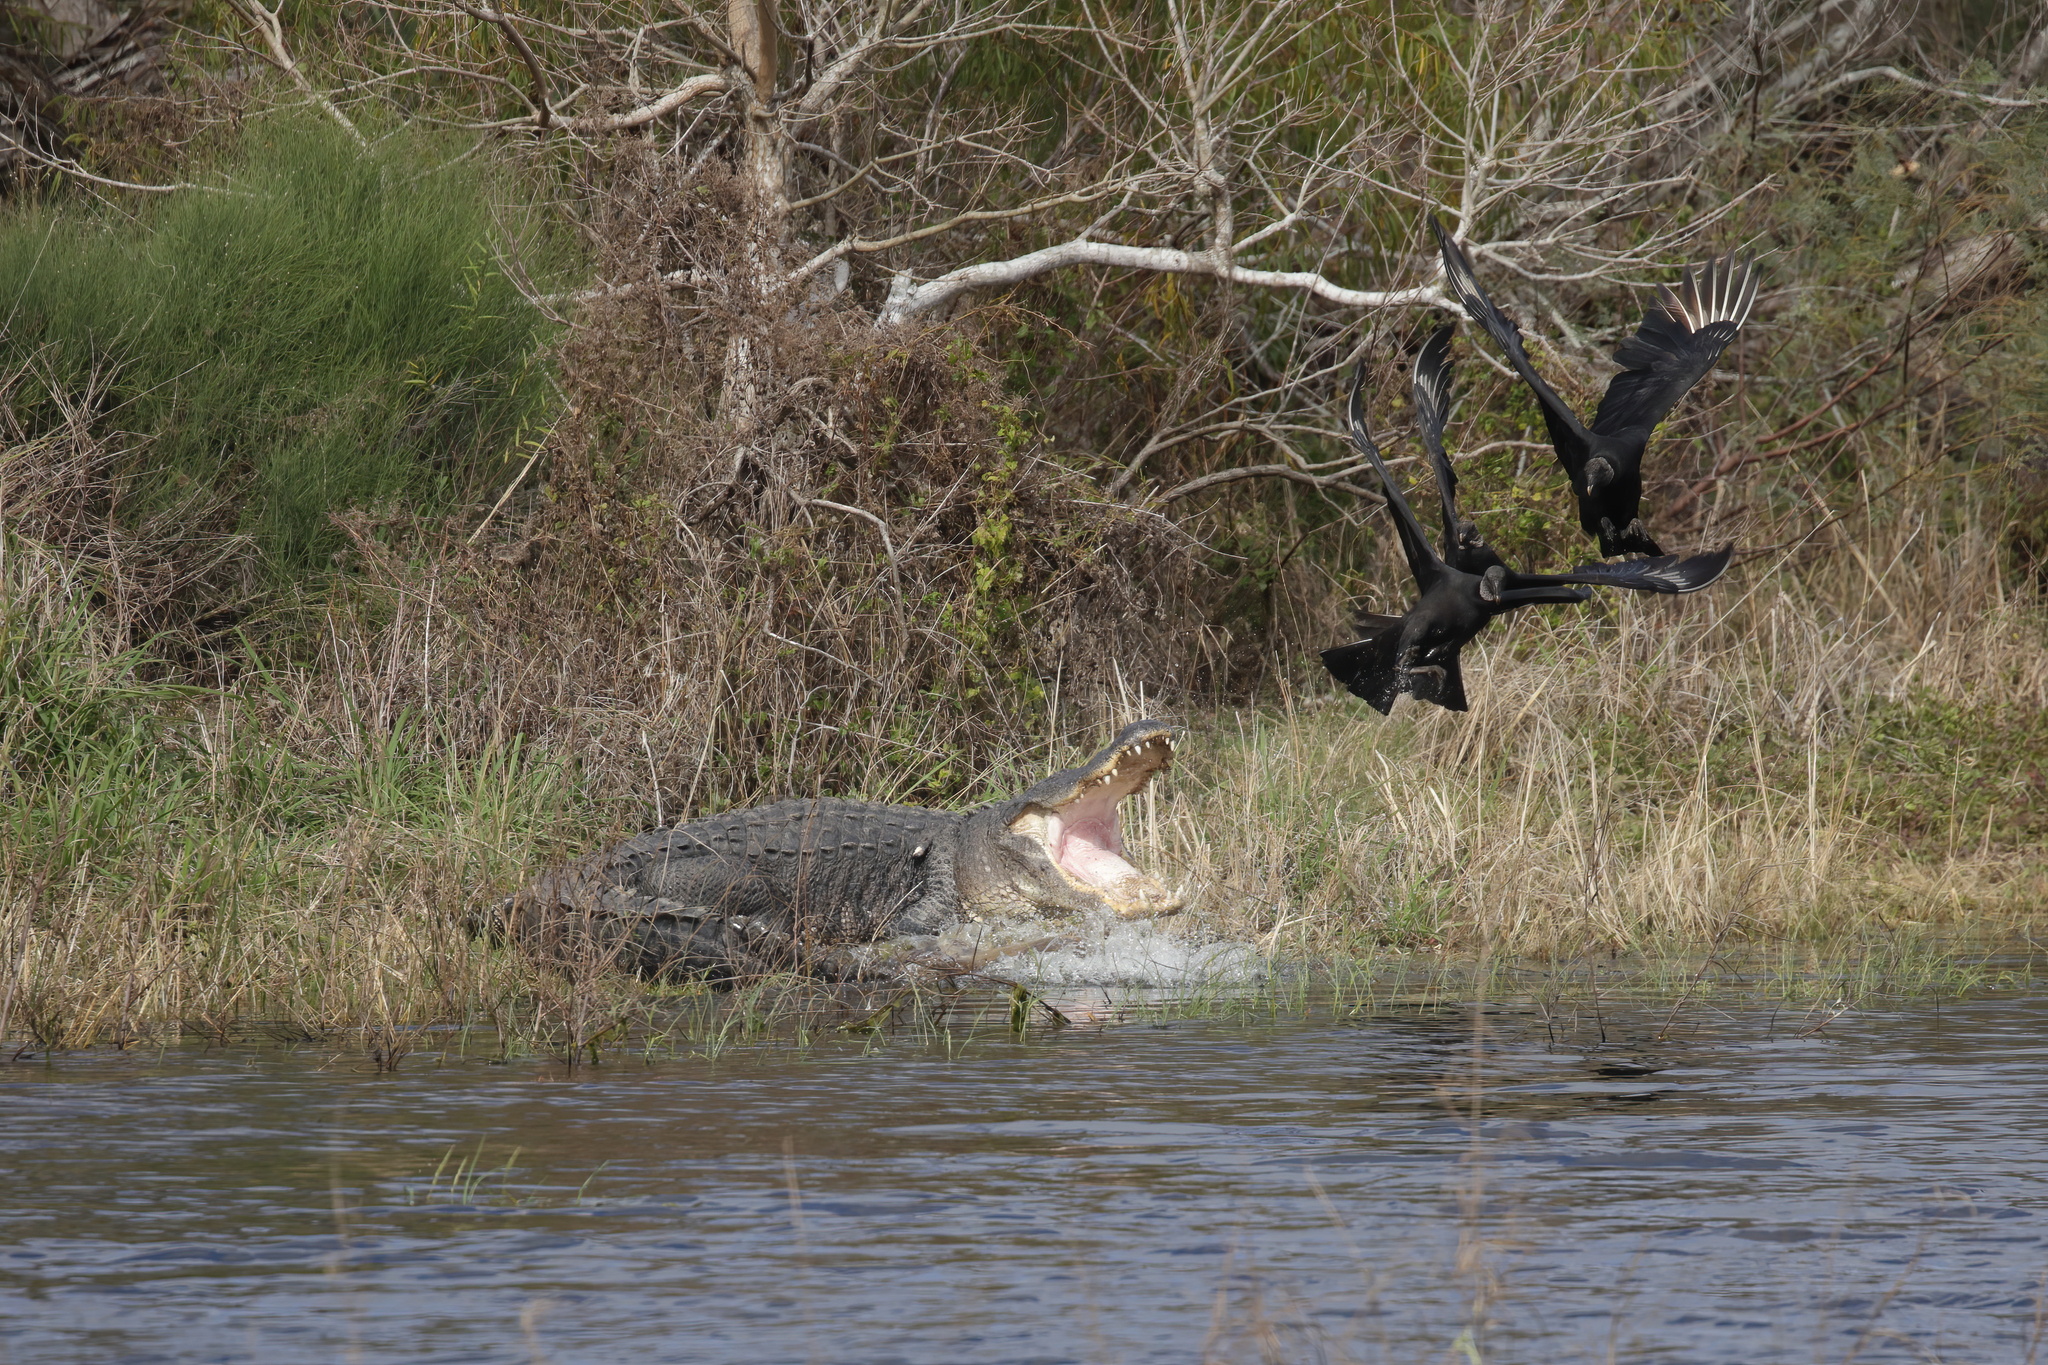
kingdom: Animalia
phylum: Chordata
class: Crocodylia
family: Alligatoridae
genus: Alligator
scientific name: Alligator mississippiensis
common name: American alligator
